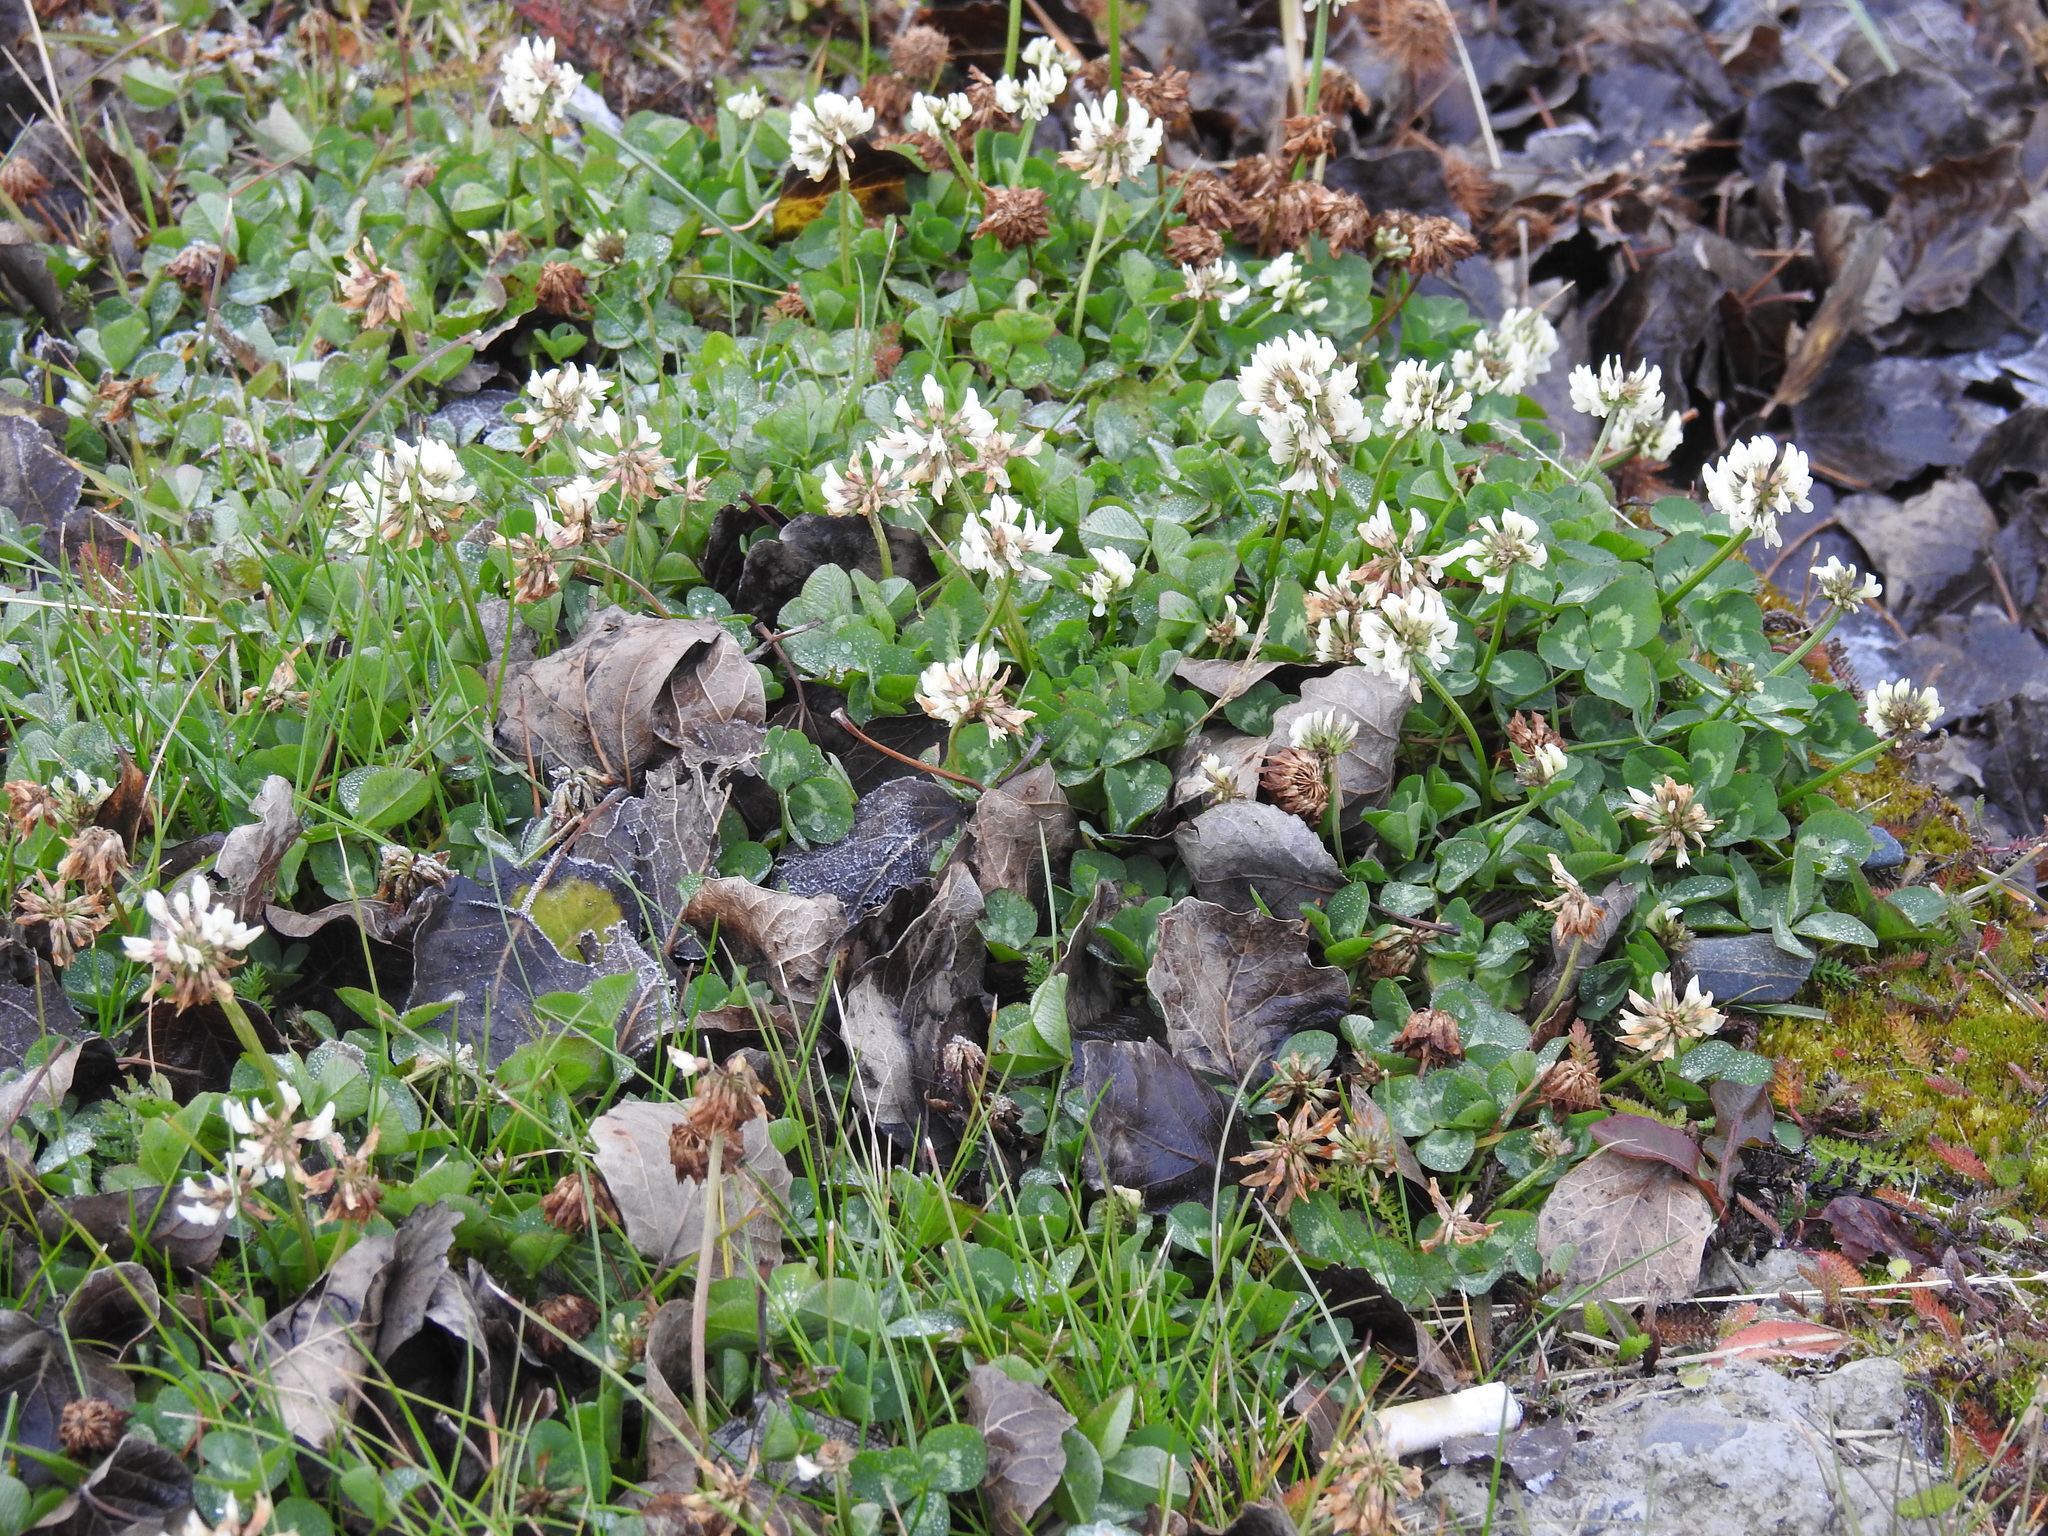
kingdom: Plantae
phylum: Tracheophyta
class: Magnoliopsida
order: Fabales
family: Fabaceae
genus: Trifolium
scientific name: Trifolium repens
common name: White clover
